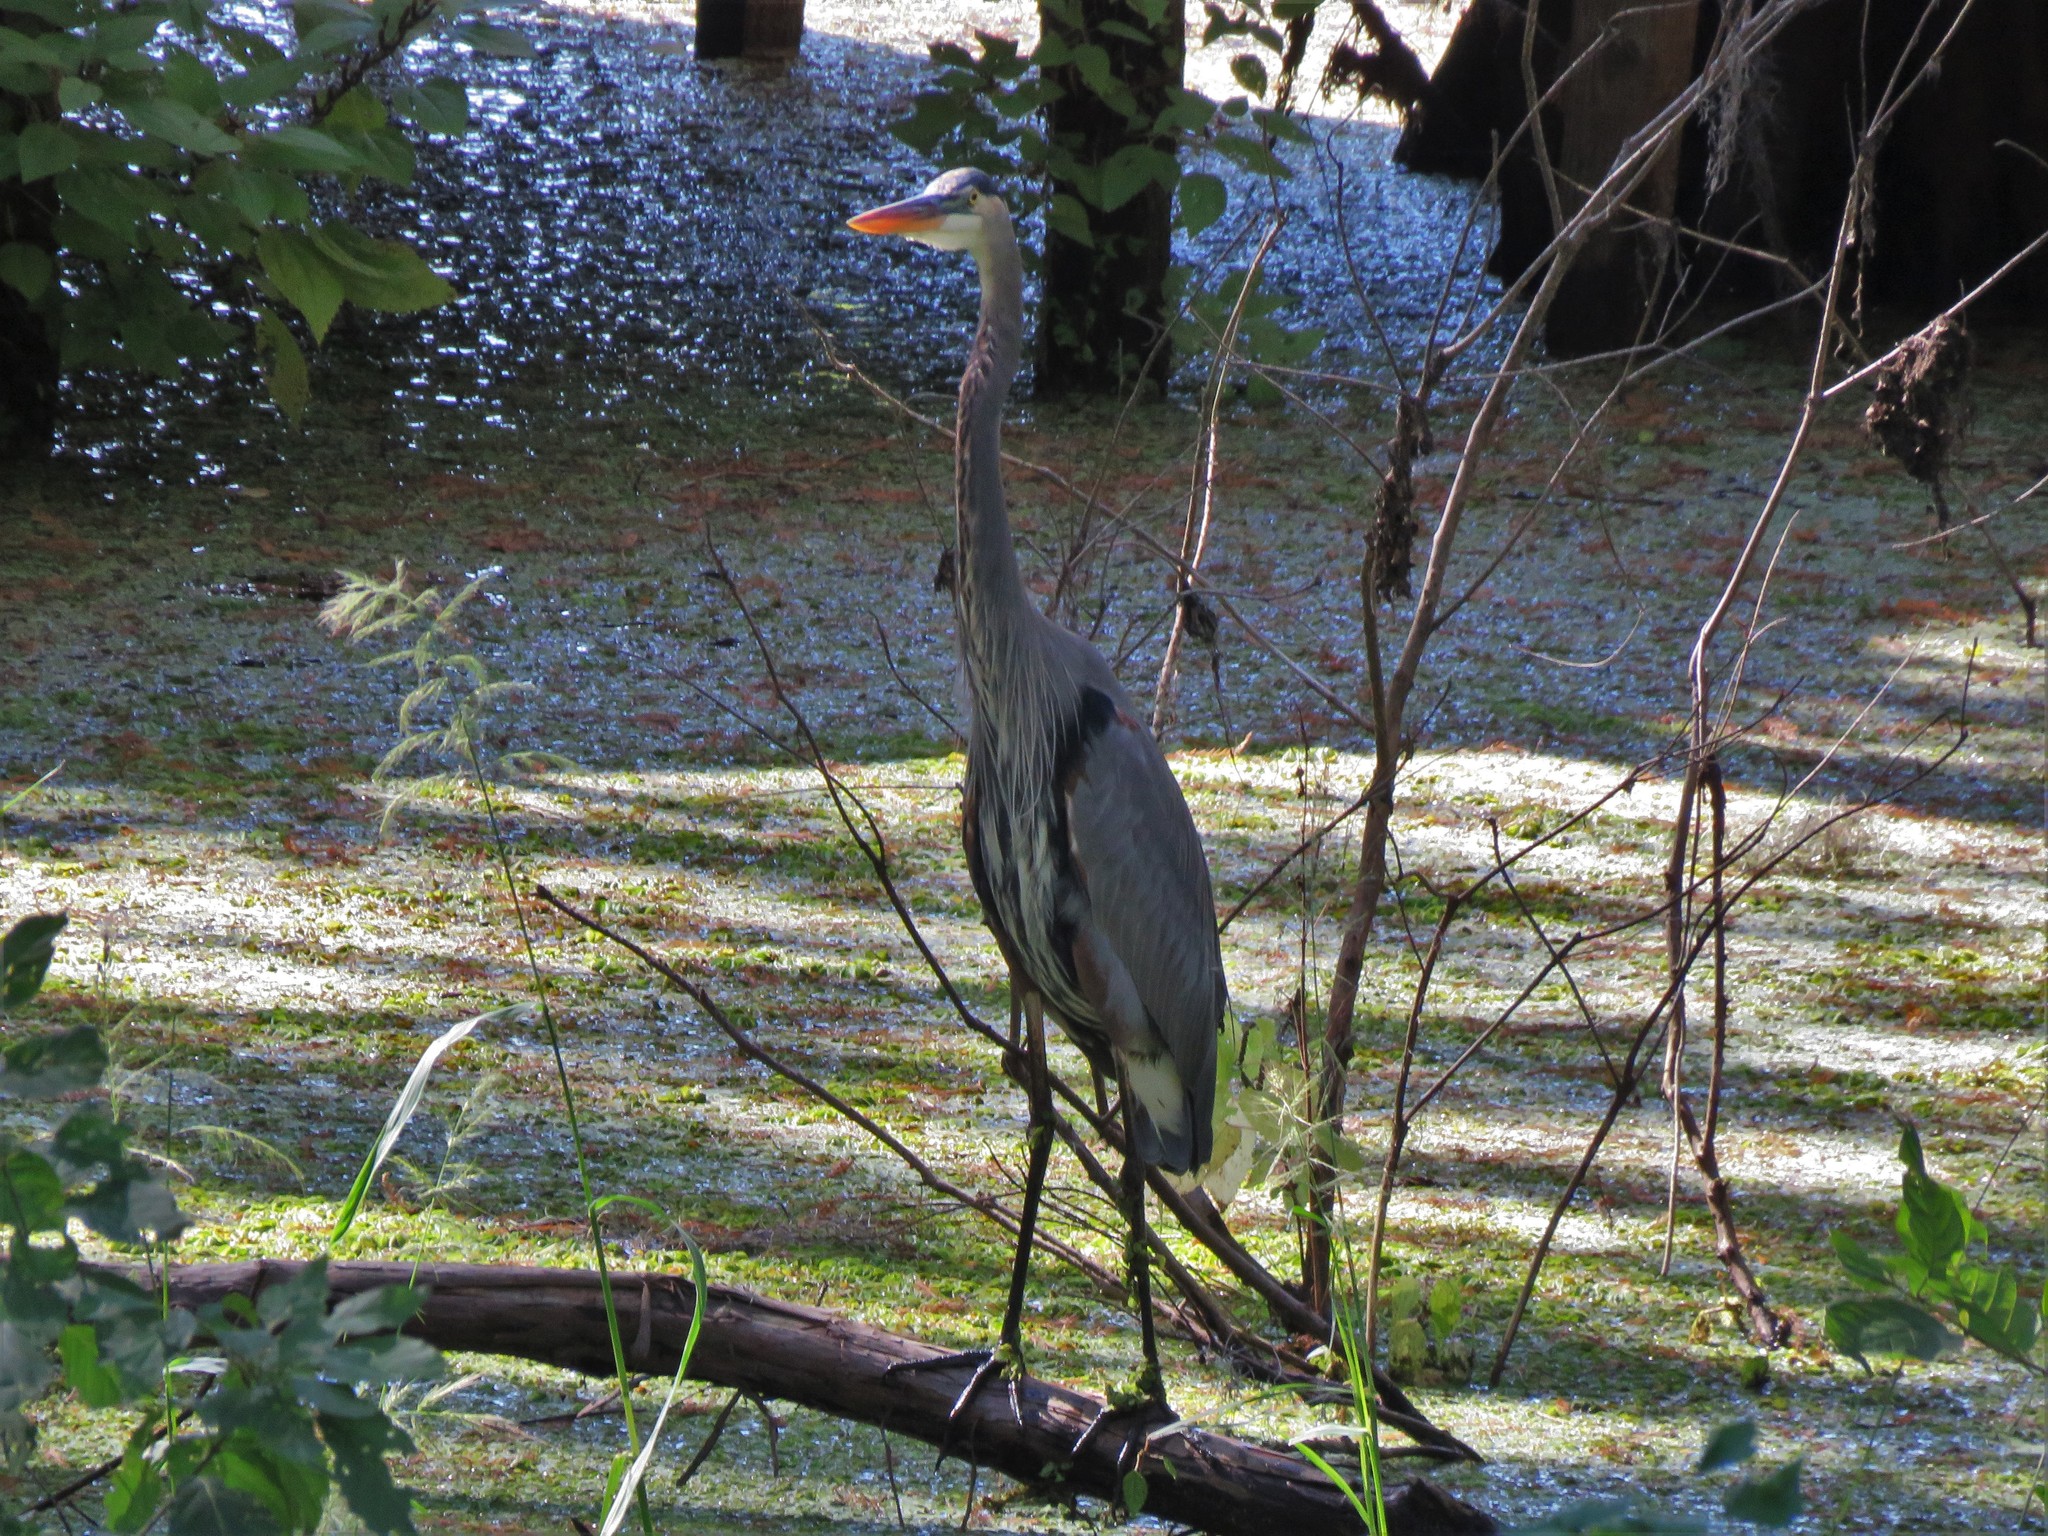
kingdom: Animalia
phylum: Chordata
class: Aves
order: Pelecaniformes
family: Ardeidae
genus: Ardea
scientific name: Ardea herodias
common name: Great blue heron
